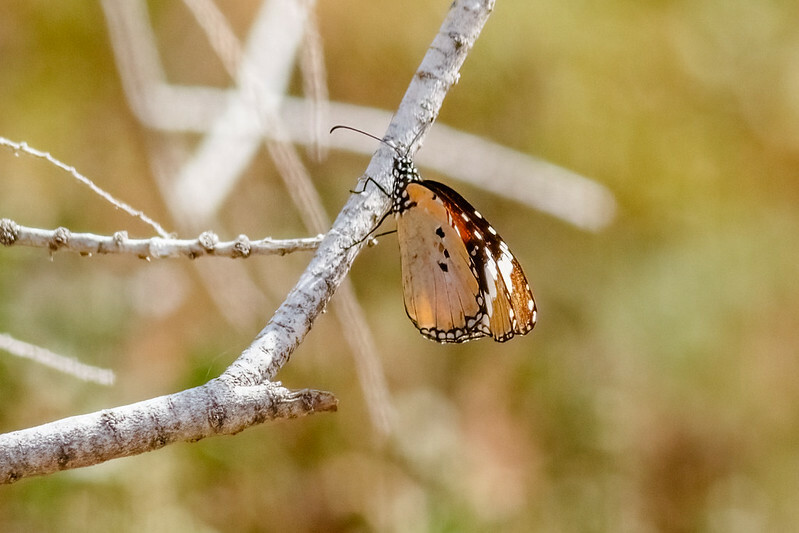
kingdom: Animalia
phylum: Arthropoda
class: Insecta
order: Lepidoptera
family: Nymphalidae
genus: Danaus
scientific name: Danaus chrysippus
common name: Plain tiger
